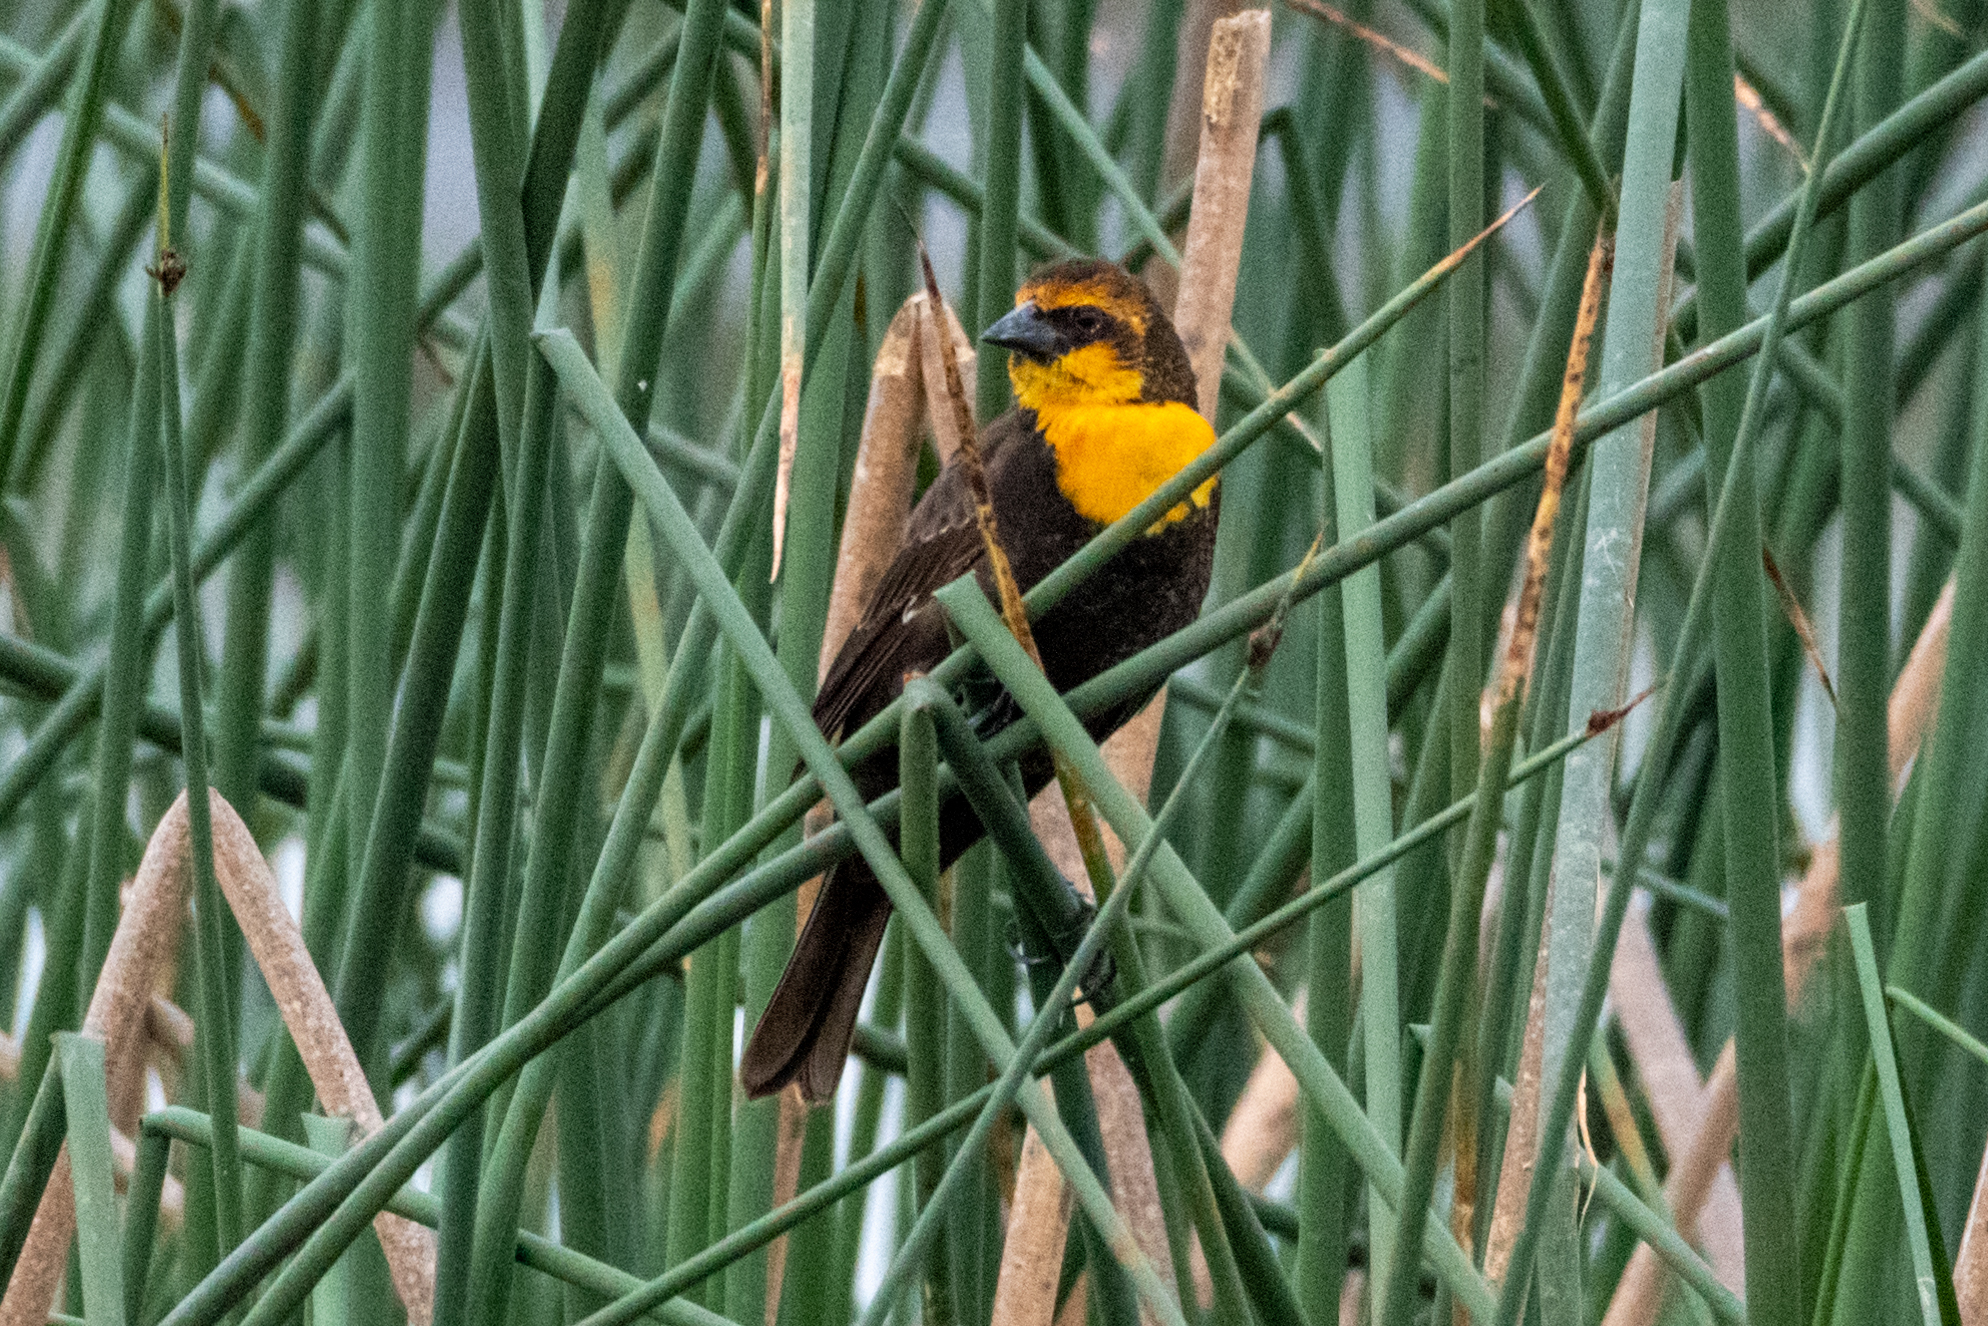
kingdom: Animalia
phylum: Chordata
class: Aves
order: Passeriformes
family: Icteridae
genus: Xanthocephalus
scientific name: Xanthocephalus xanthocephalus
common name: Yellow-headed blackbird
